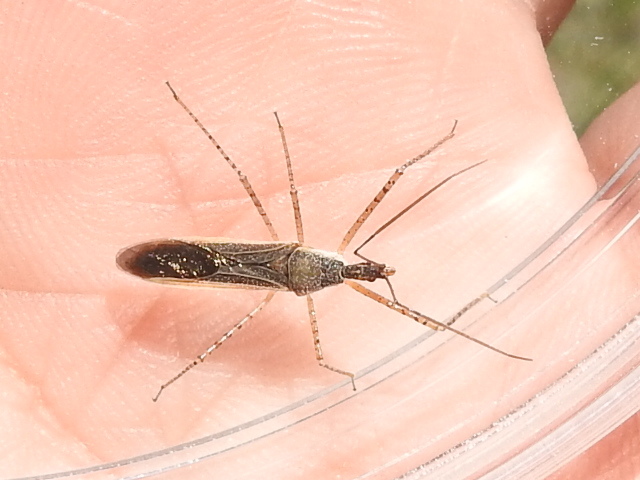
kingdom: Animalia
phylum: Arthropoda
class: Insecta
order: Hemiptera
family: Reduviidae
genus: Zelus
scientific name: Zelus cervicalis
